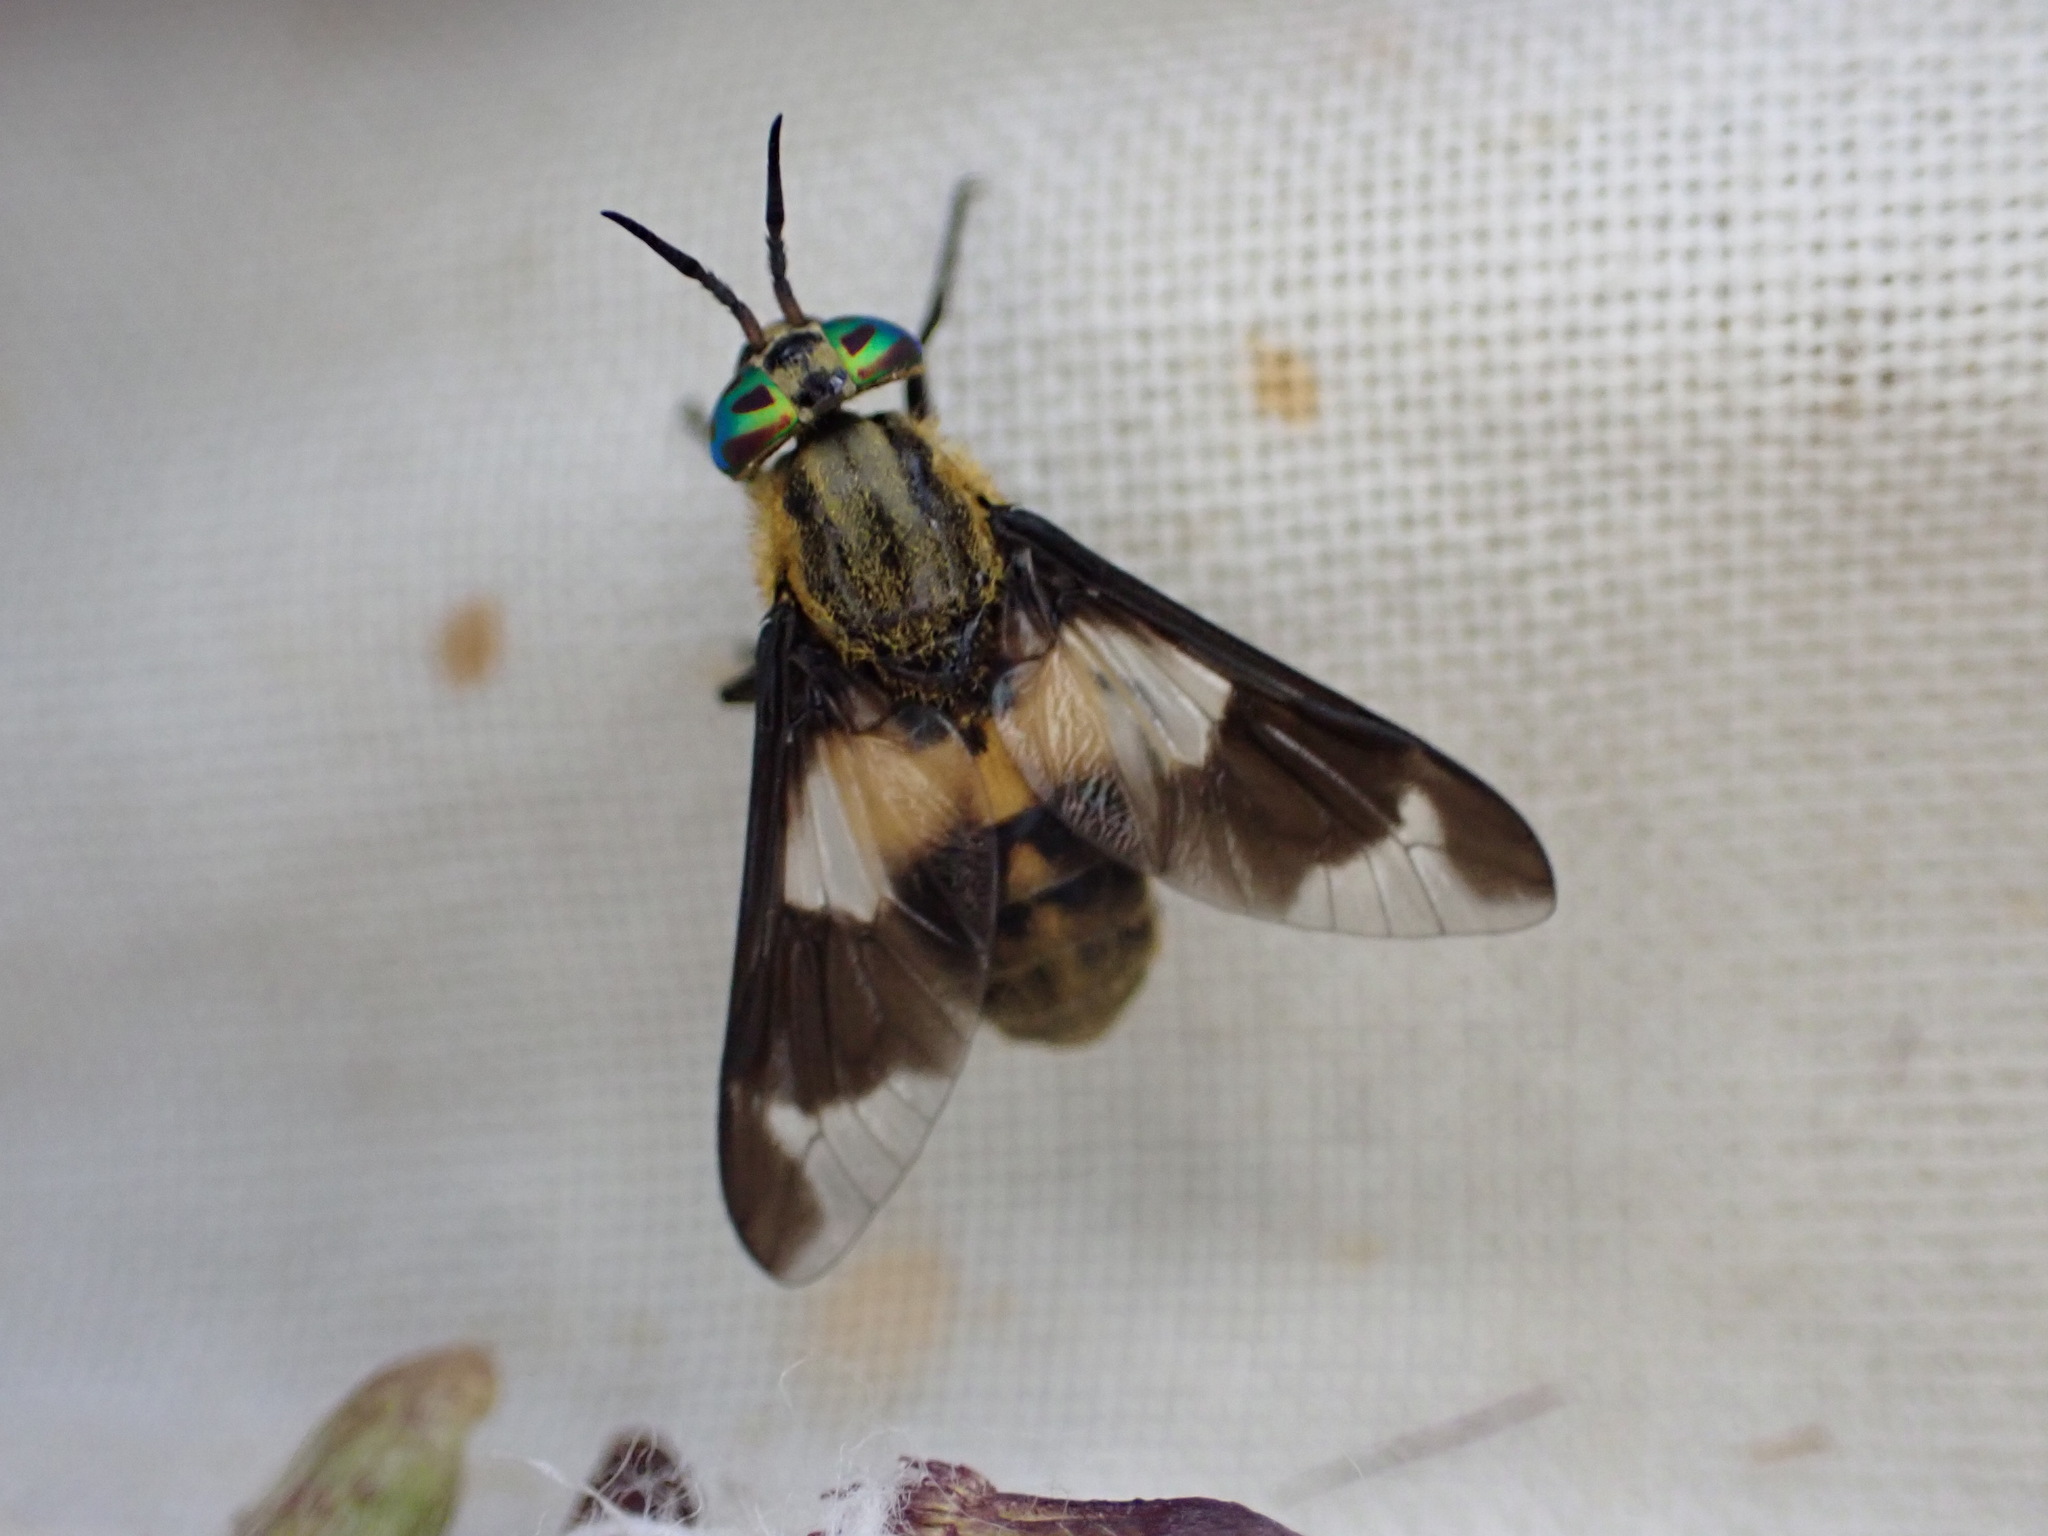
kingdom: Animalia
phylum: Arthropoda
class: Insecta
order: Diptera
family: Tabanidae
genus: Chrysops
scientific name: Chrysops caecutiens
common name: Splayed deerfly
